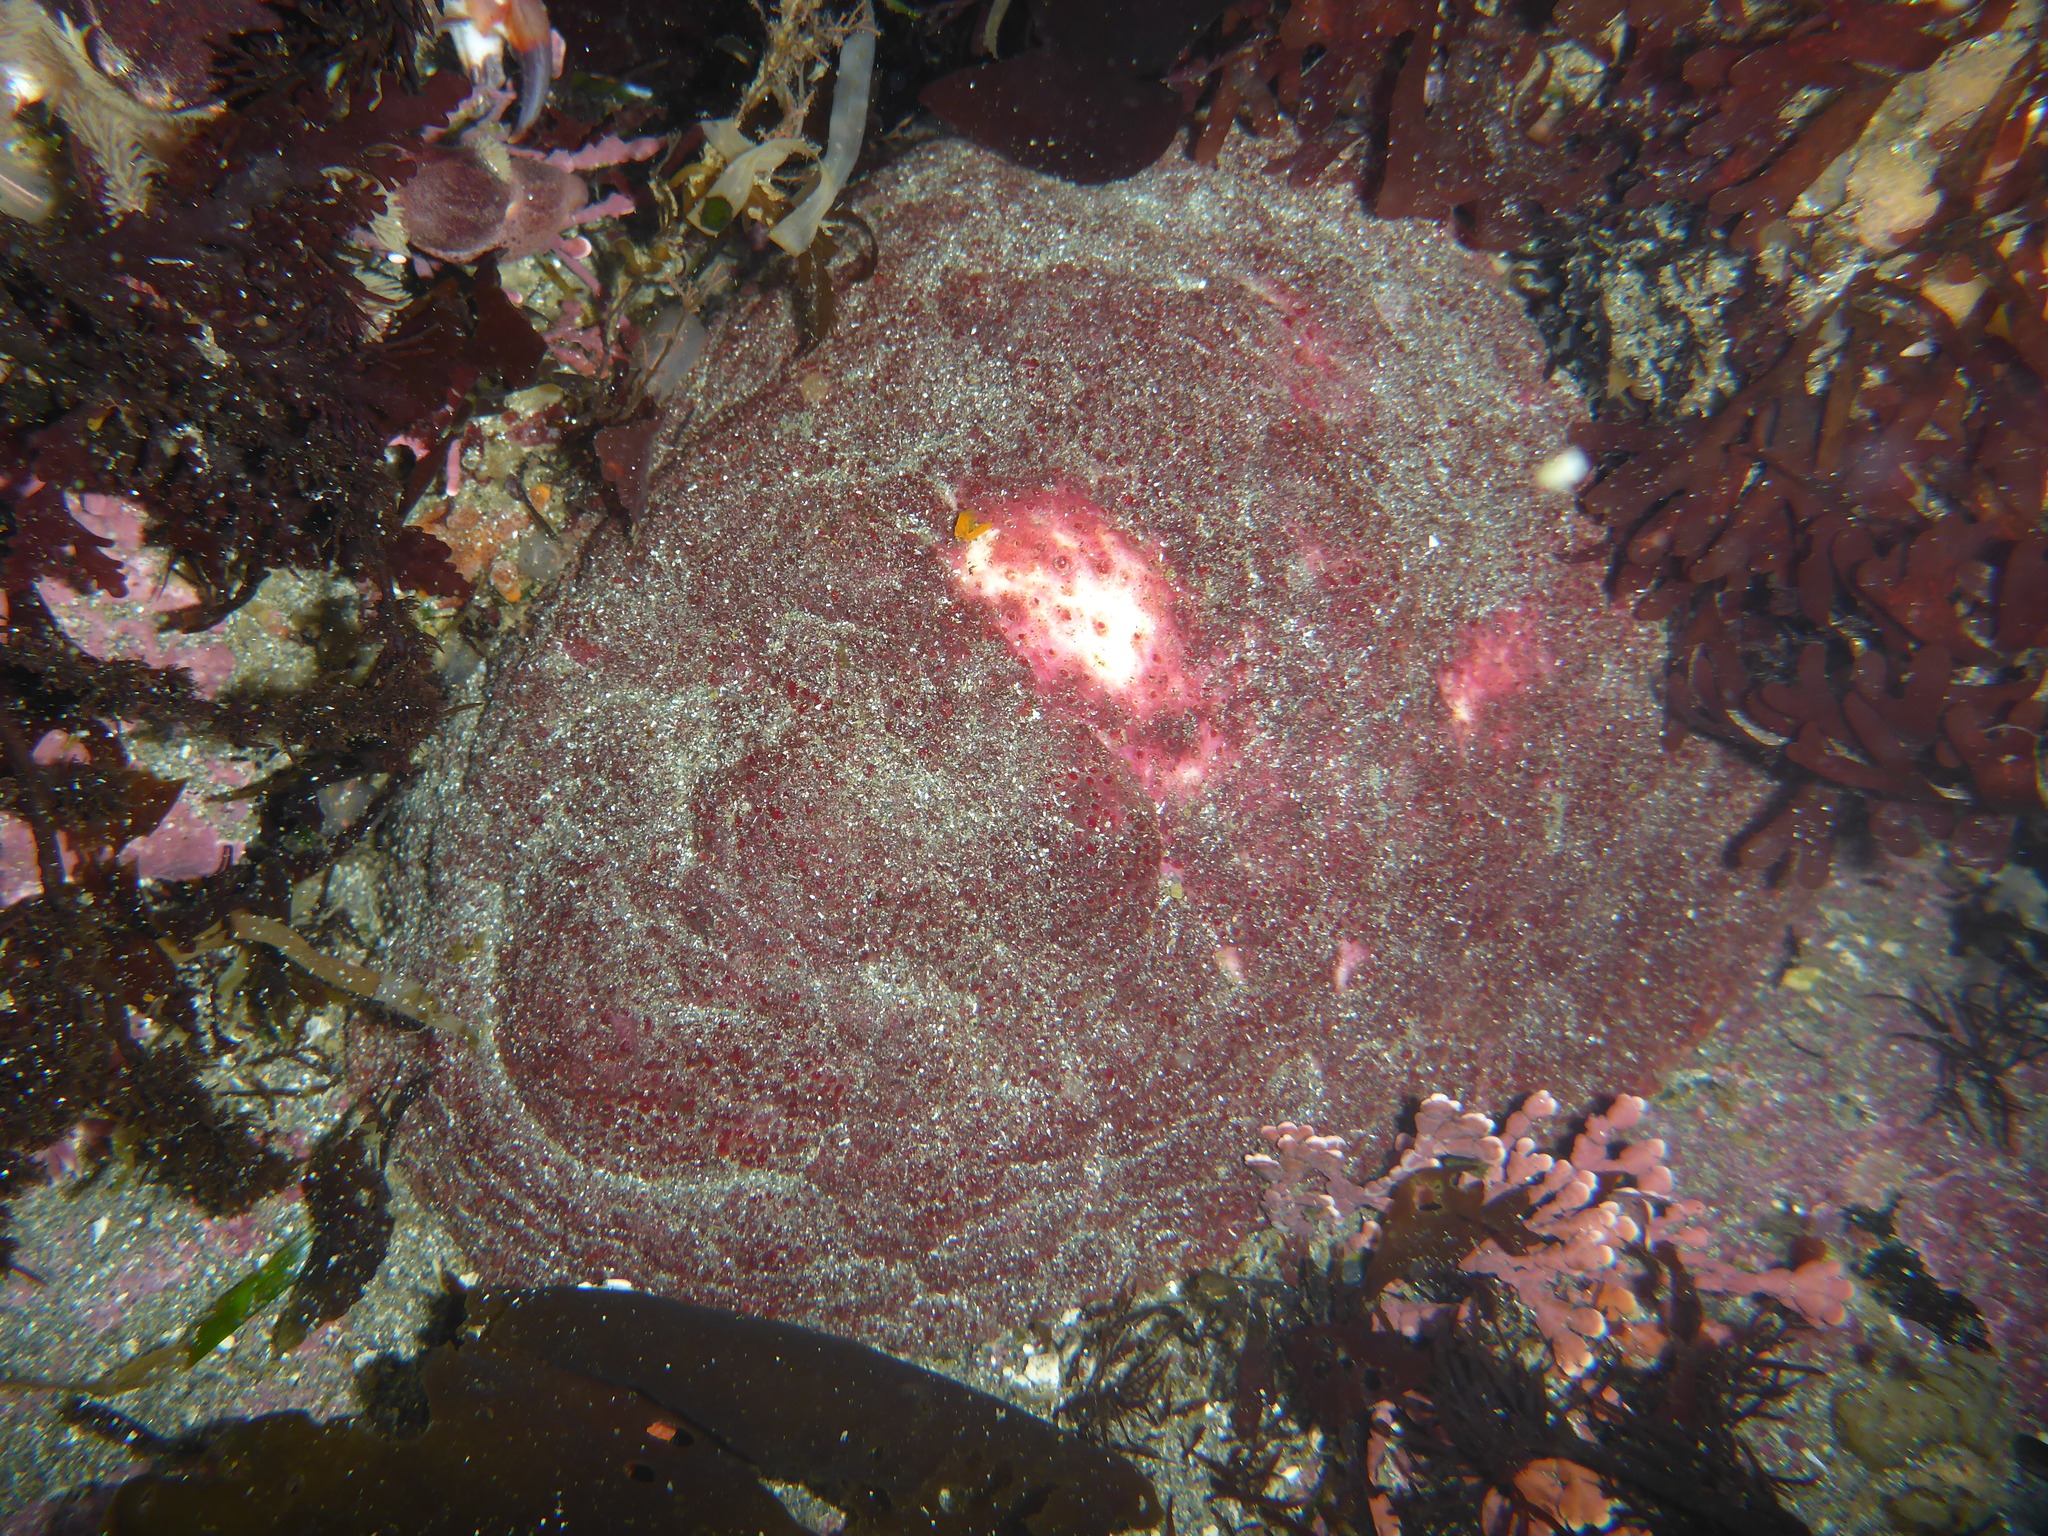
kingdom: Animalia
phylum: Mollusca
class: Polyplacophora
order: Chitonida
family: Acanthochitonidae
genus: Cryptochiton
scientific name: Cryptochiton stelleri
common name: Giant pacific chiton
